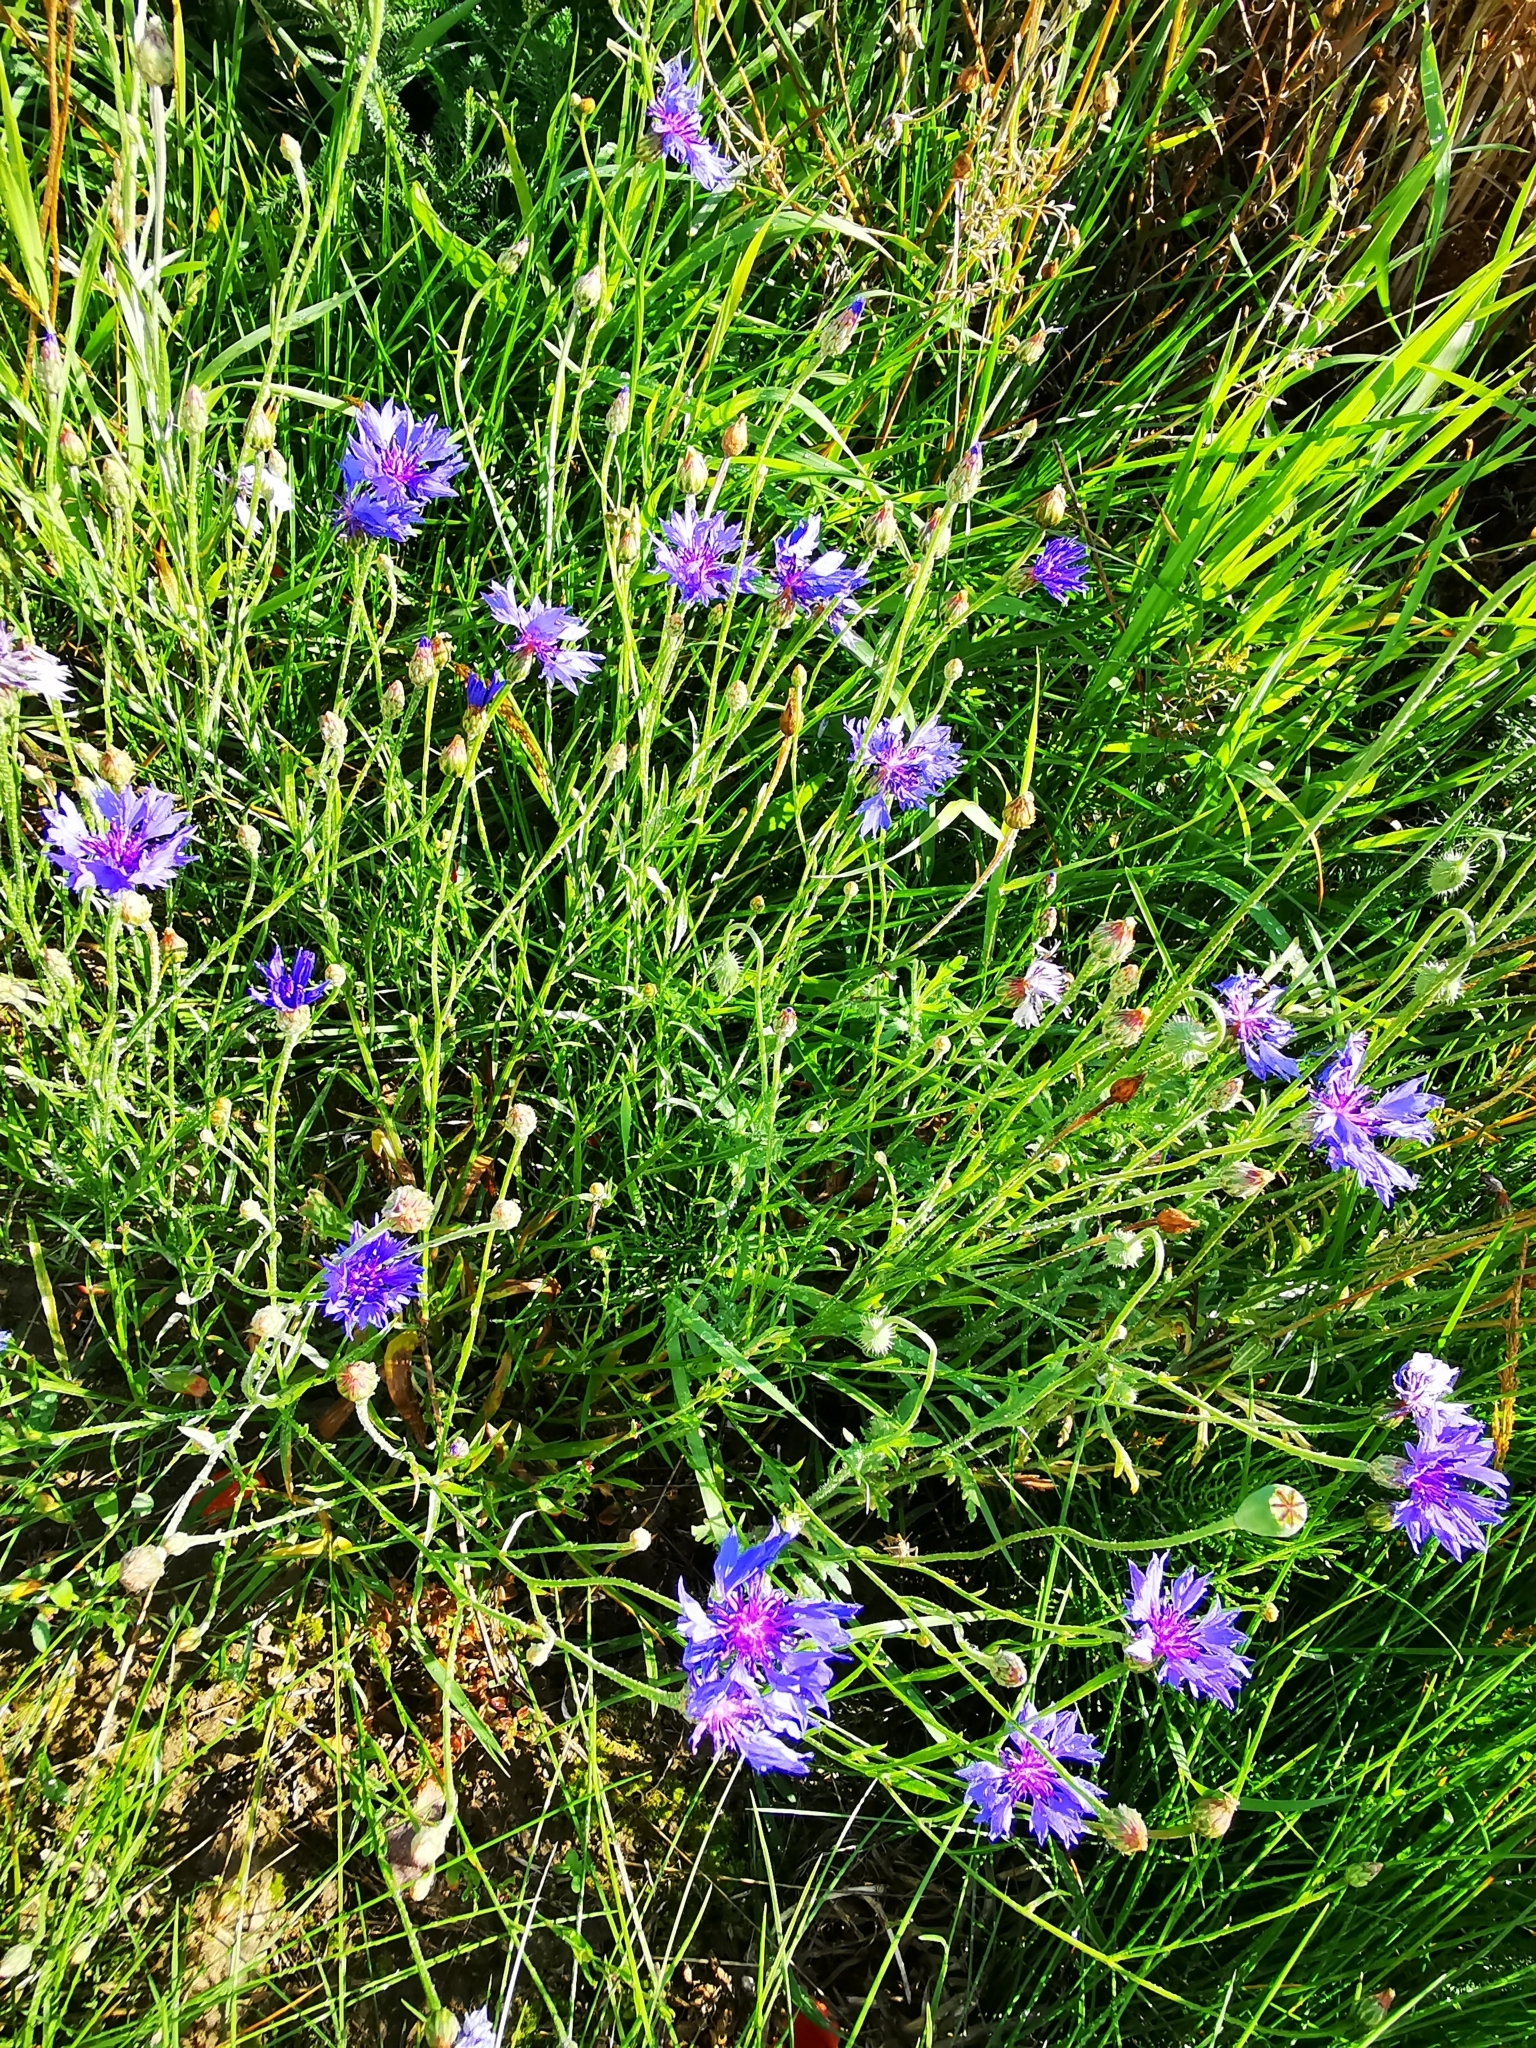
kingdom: Plantae
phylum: Tracheophyta
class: Magnoliopsida
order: Asterales
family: Asteraceae
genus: Centaurea
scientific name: Centaurea cyanus
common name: Cornflower
